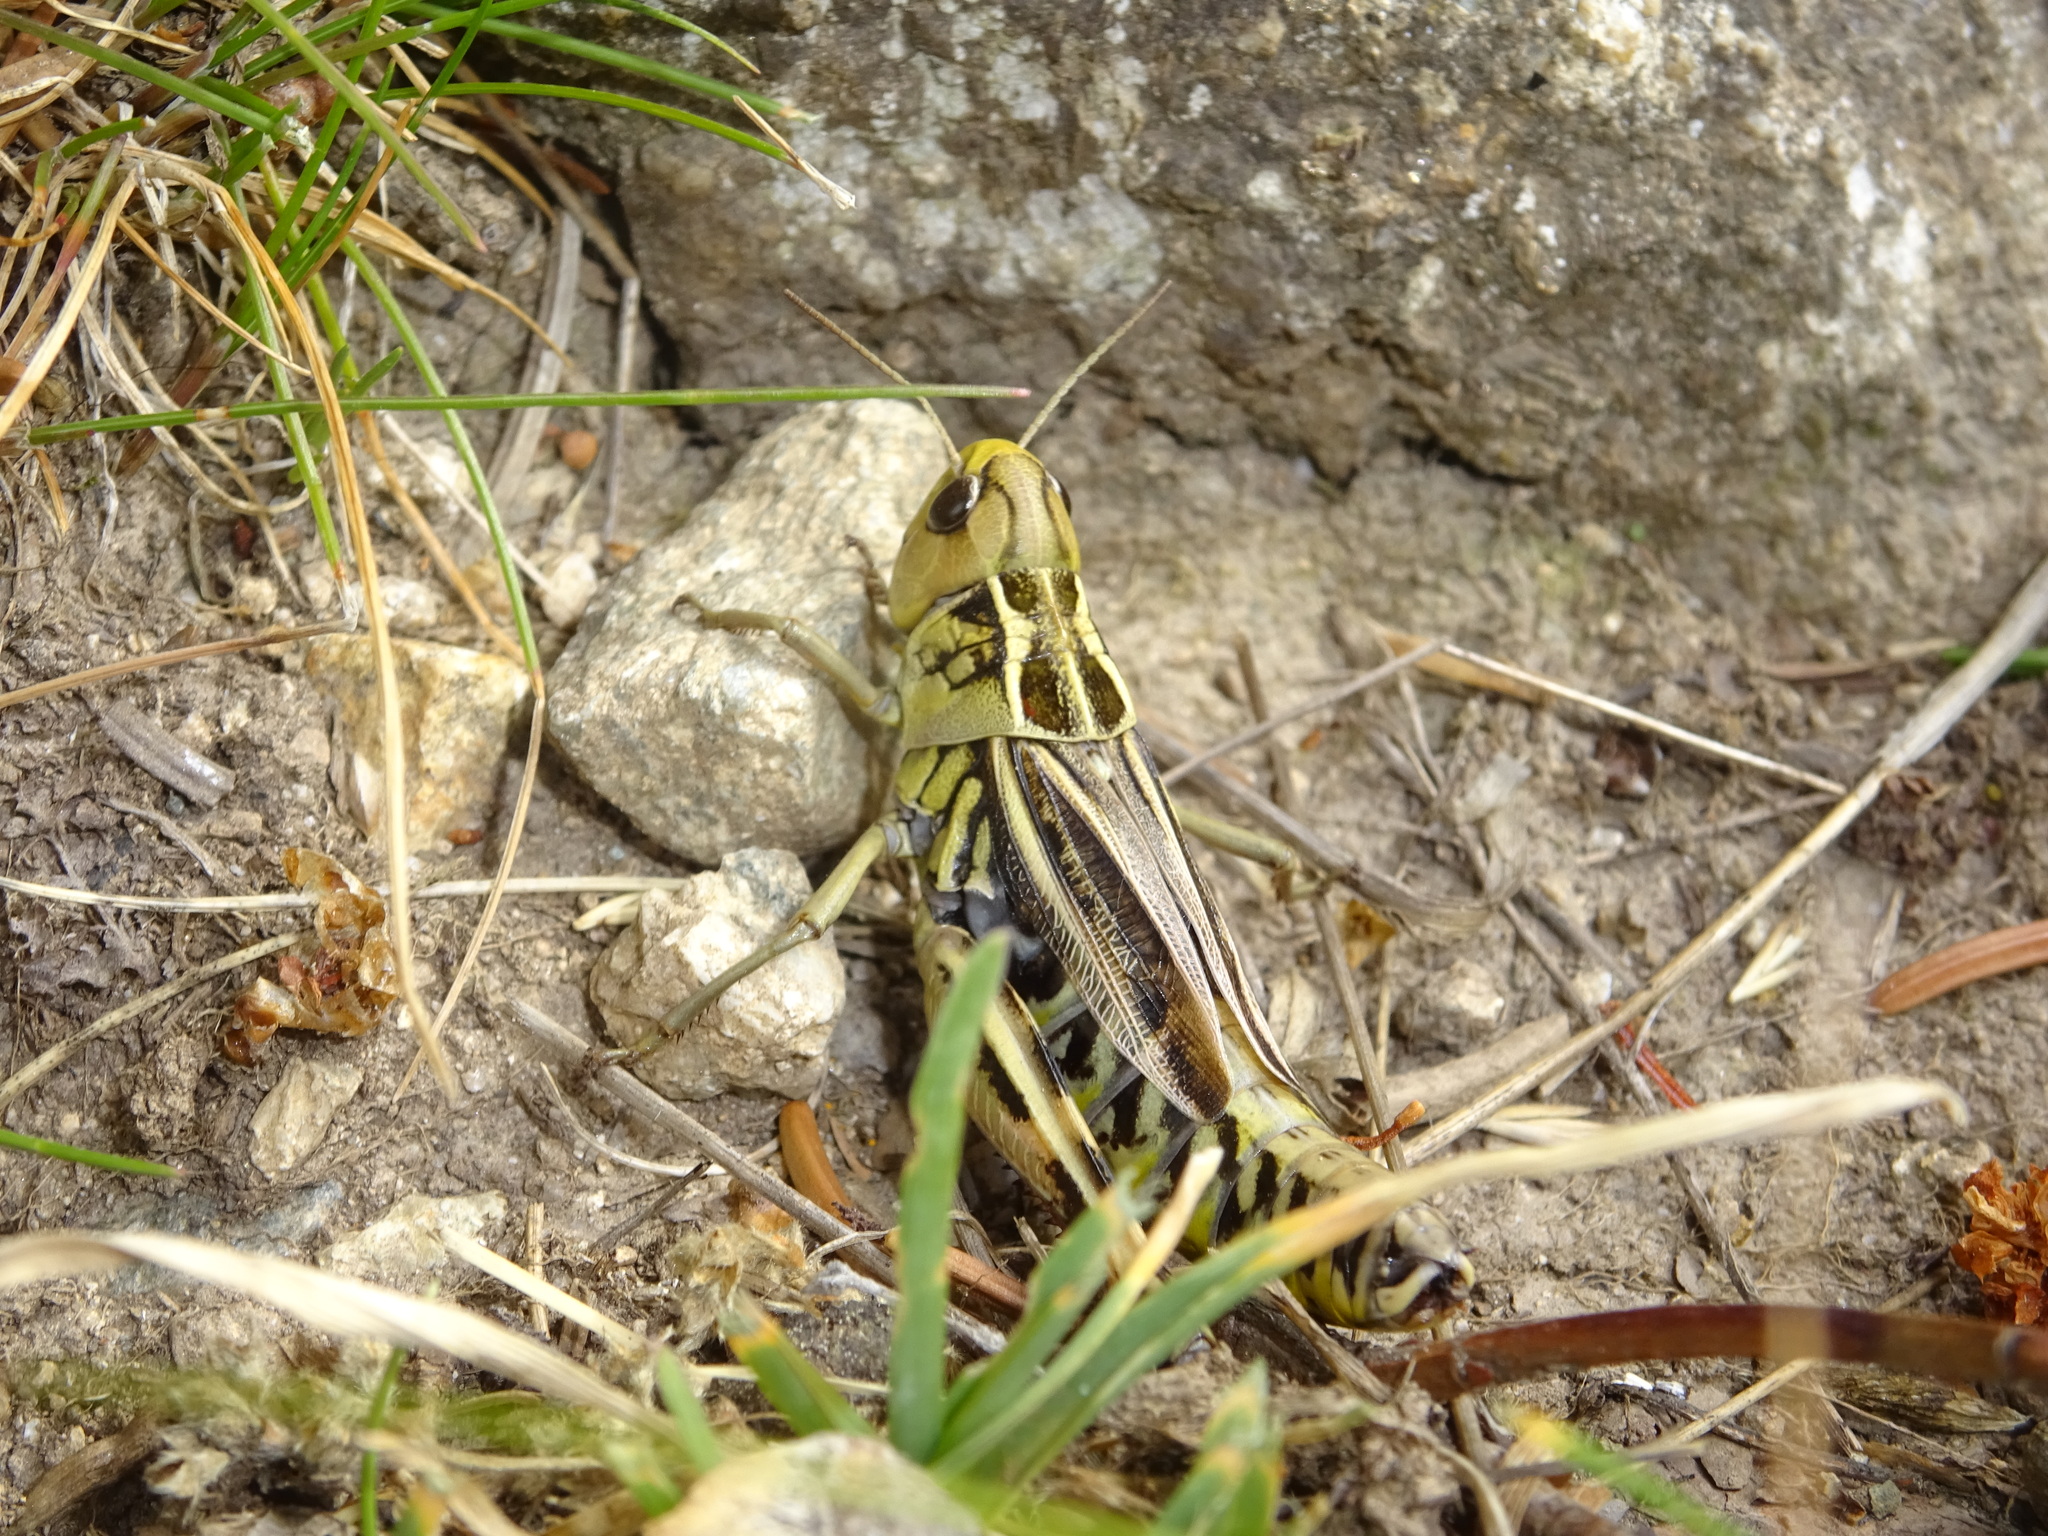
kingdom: Animalia
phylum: Arthropoda
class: Insecta
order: Orthoptera
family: Acrididae
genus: Arcyptera
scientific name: Arcyptera fusca
